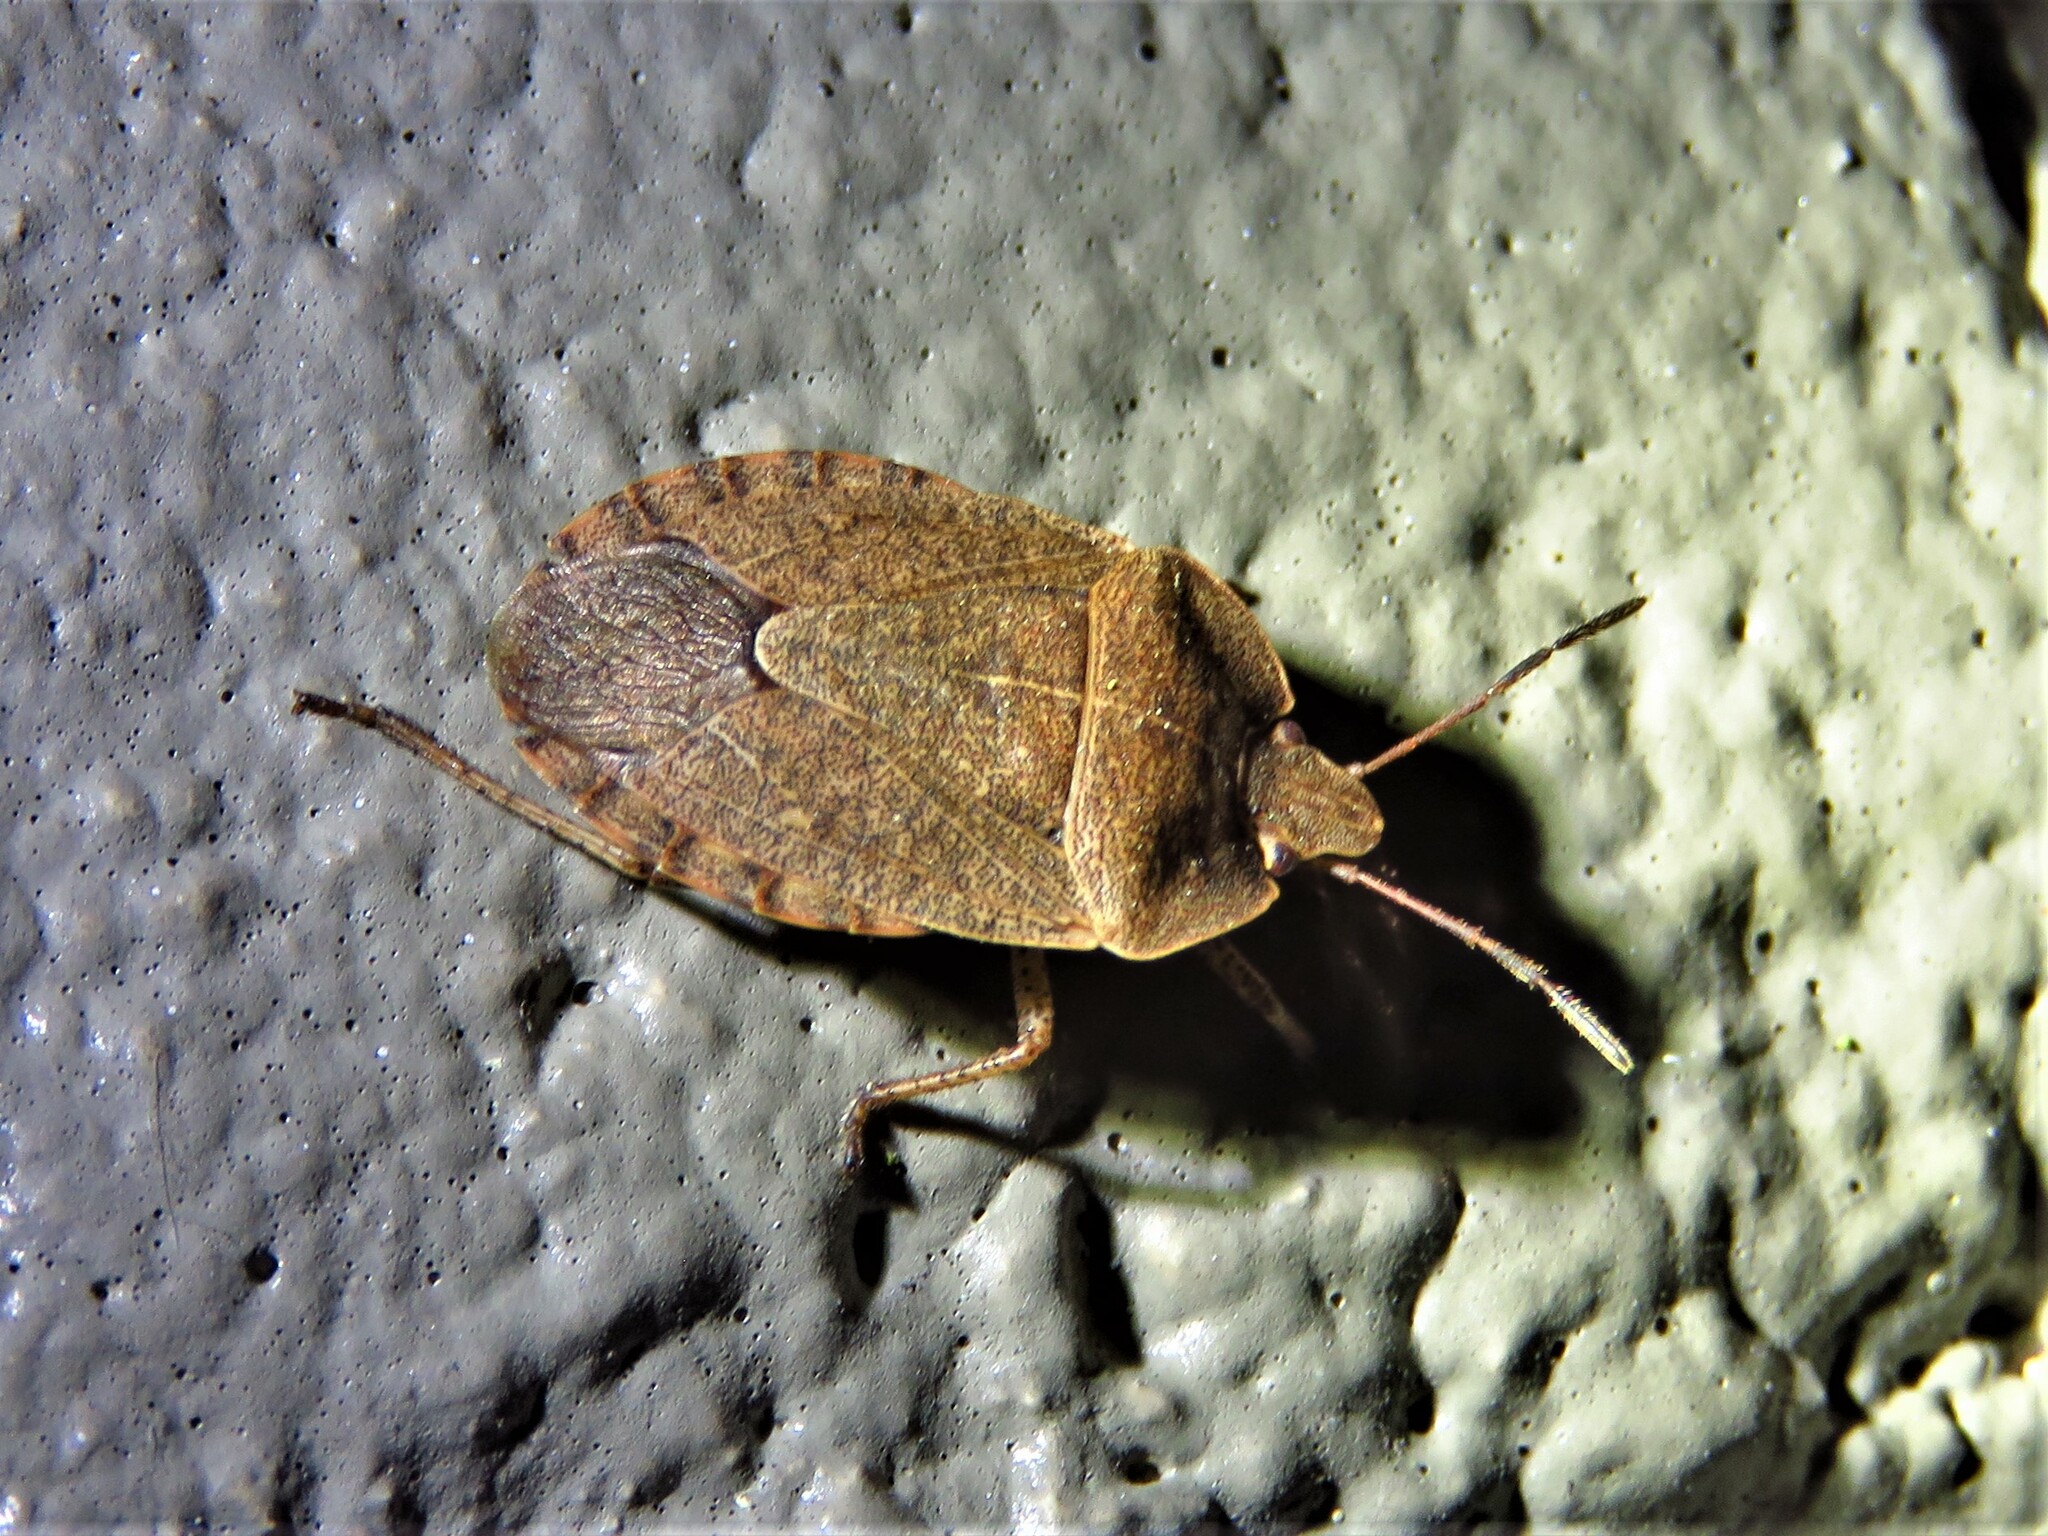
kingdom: Animalia
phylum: Arthropoda
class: Insecta
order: Hemiptera
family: Pentatomidae
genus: Menecles
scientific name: Menecles insertus
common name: Elf shoe stink bug
